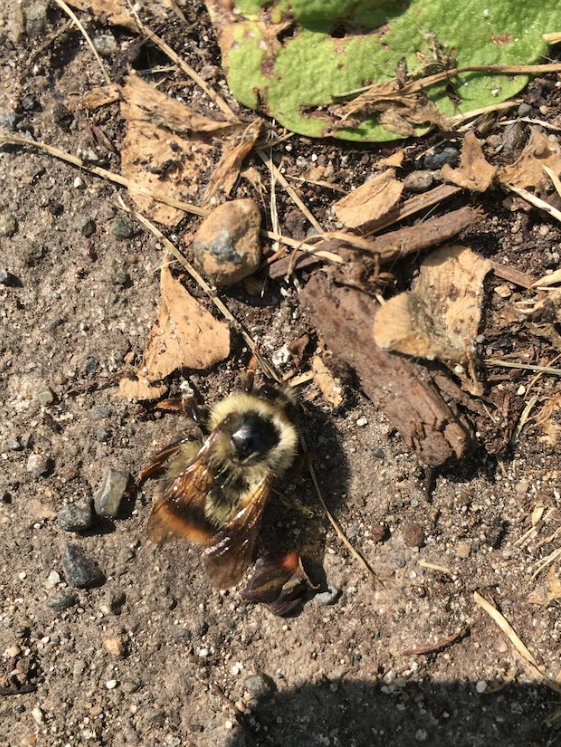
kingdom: Animalia
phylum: Arthropoda
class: Insecta
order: Hymenoptera
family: Apidae
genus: Bombus
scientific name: Bombus mixtus
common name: Fuzzy-horned bumble bee
